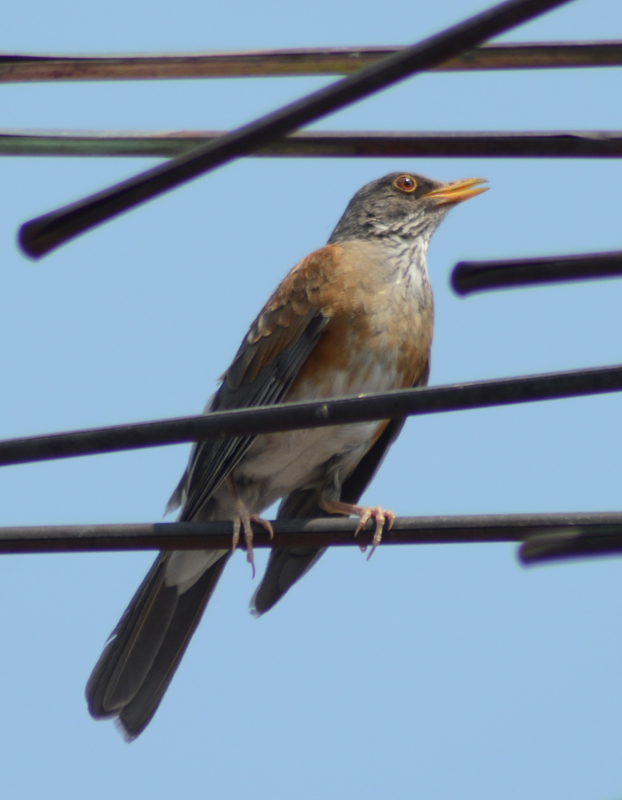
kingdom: Animalia
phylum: Chordata
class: Aves
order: Passeriformes
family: Turdidae
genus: Turdus
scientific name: Turdus rufopalliatus
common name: Rufous-backed robin
